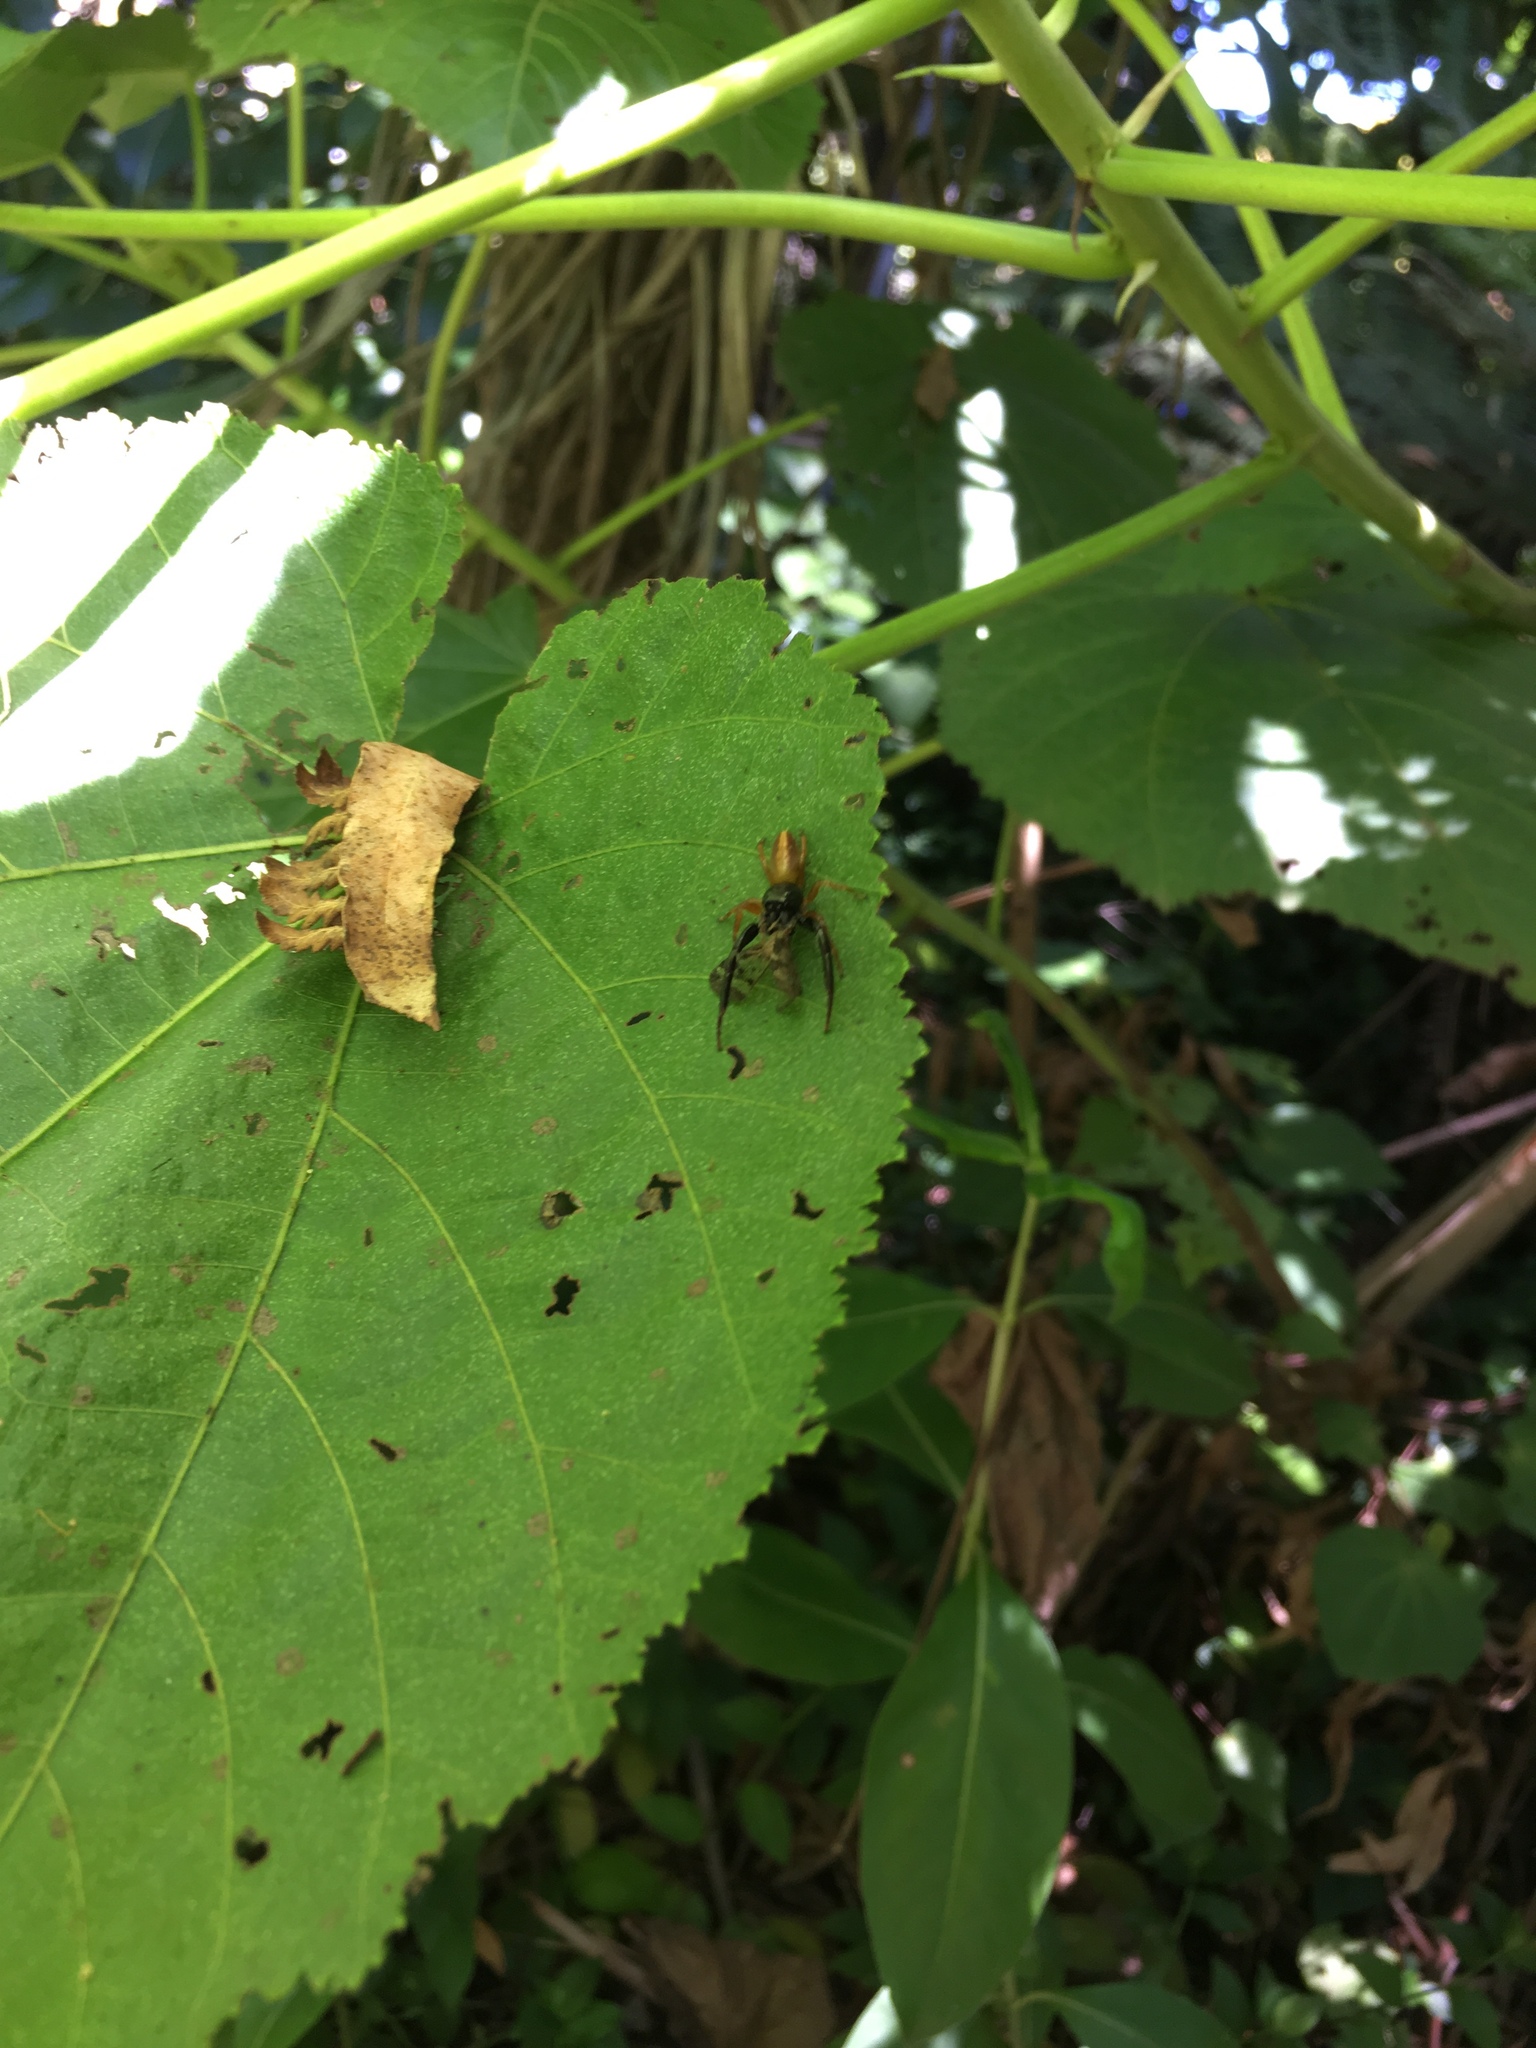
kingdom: Animalia
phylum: Arthropoda
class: Arachnida
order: Araneae
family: Salticidae
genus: Trite
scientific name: Trite planiceps
